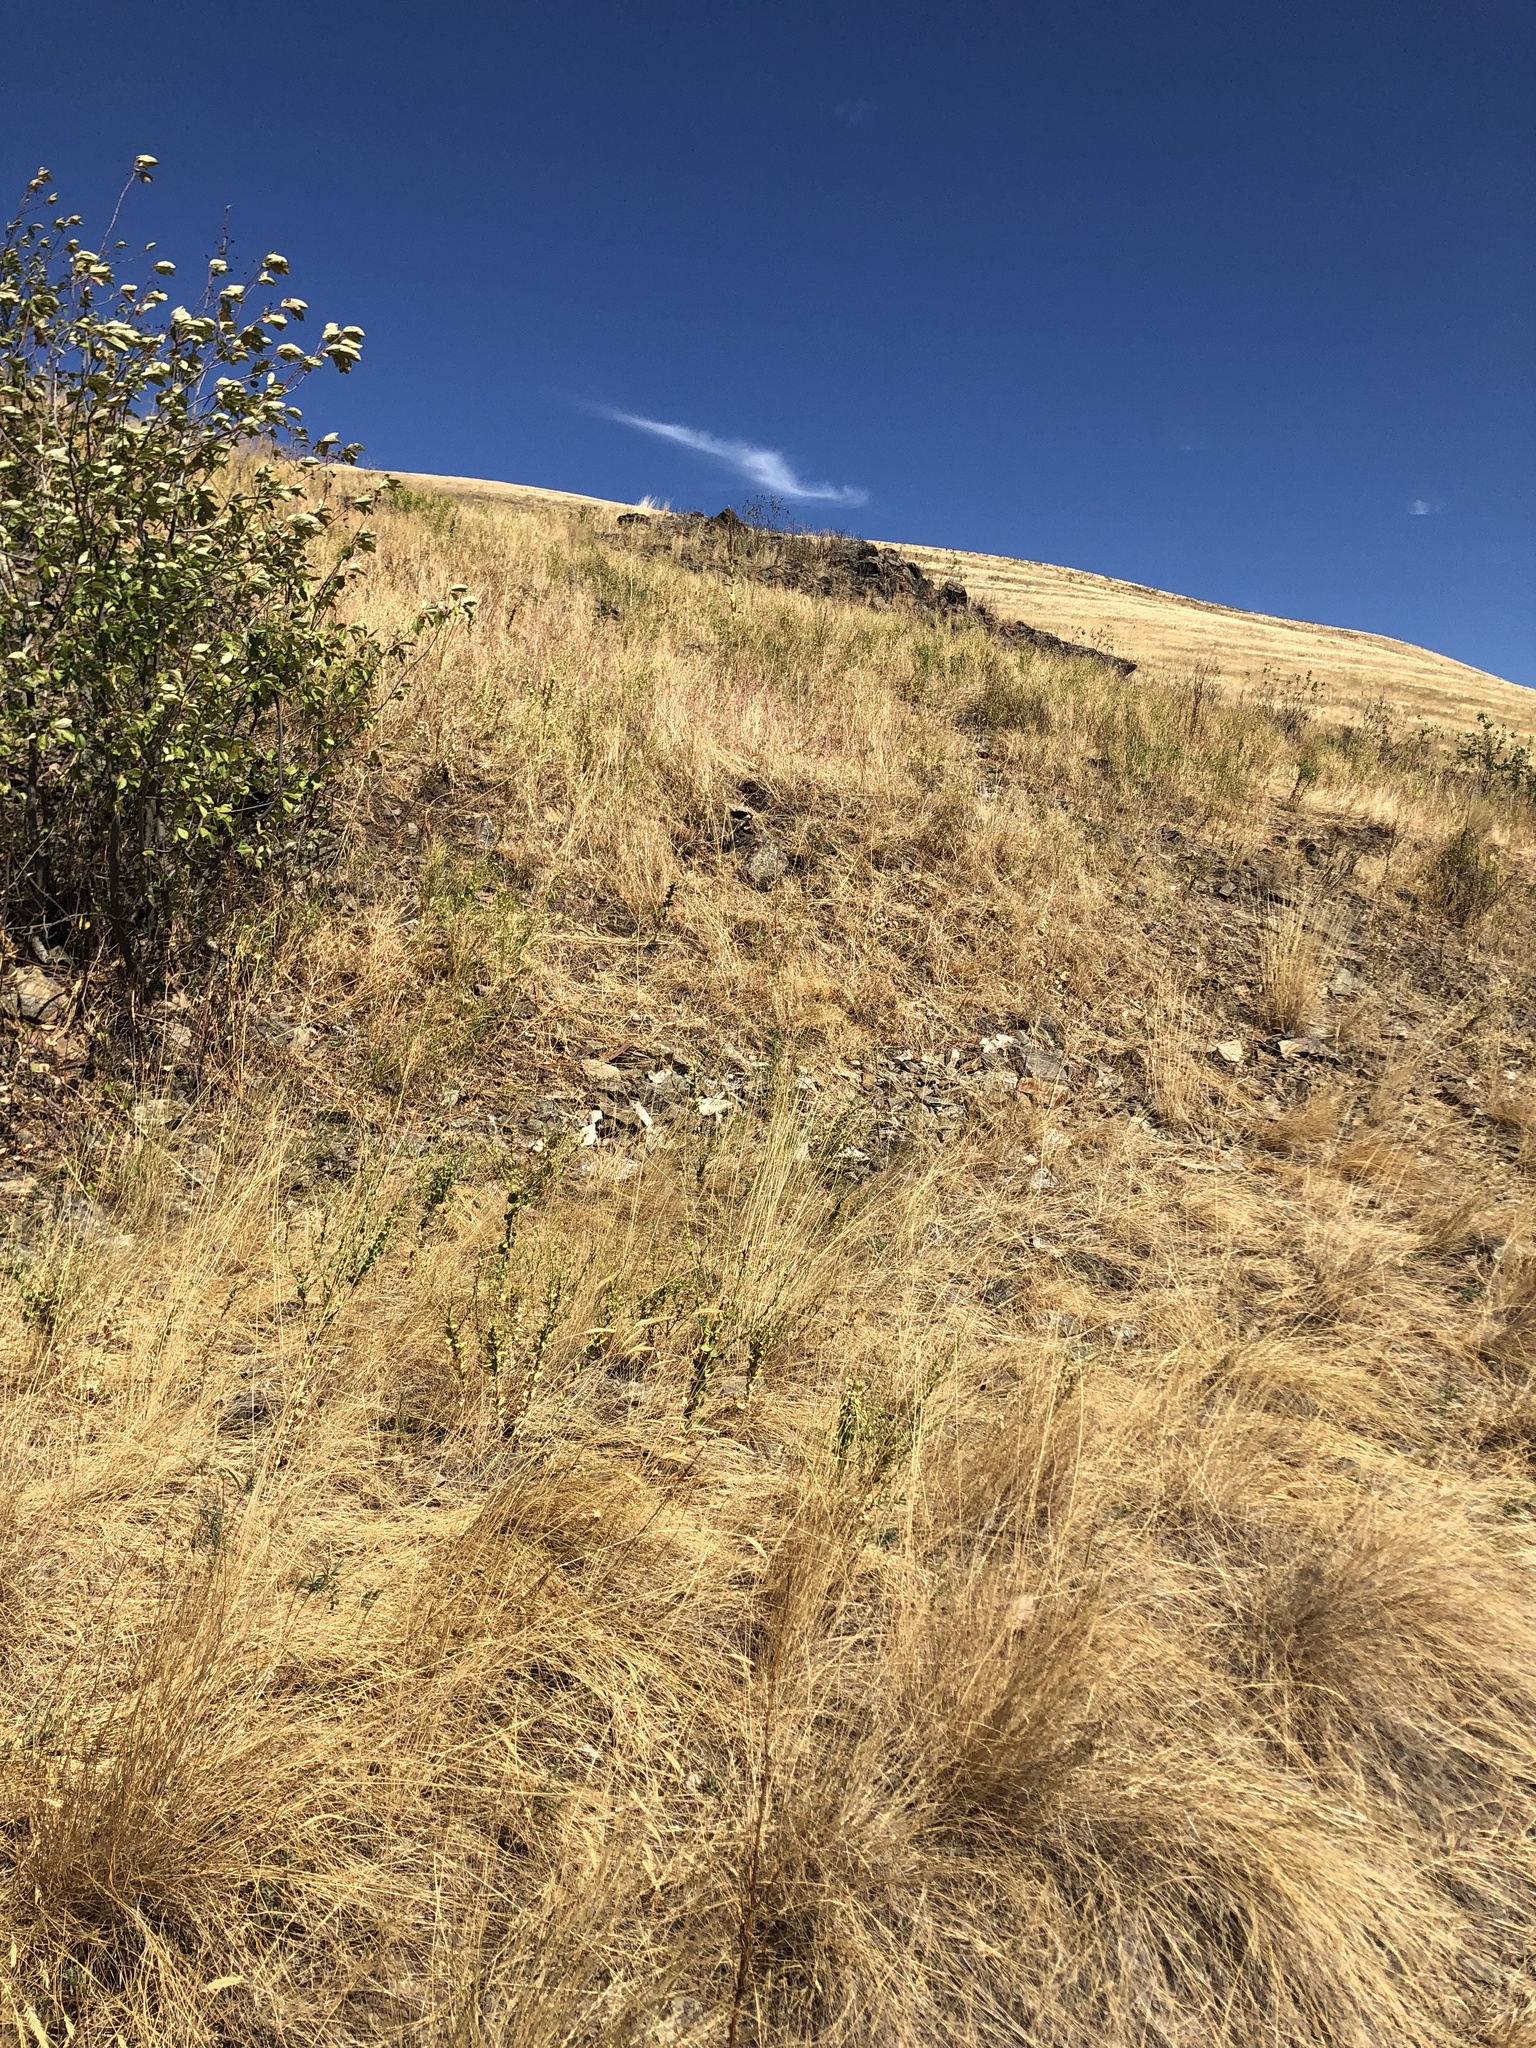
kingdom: Plantae
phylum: Tracheophyta
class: Magnoliopsida
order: Asterales
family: Asteraceae
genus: Symphyotrichum
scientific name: Symphyotrichum falcatum
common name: Creeping white prairie aster
